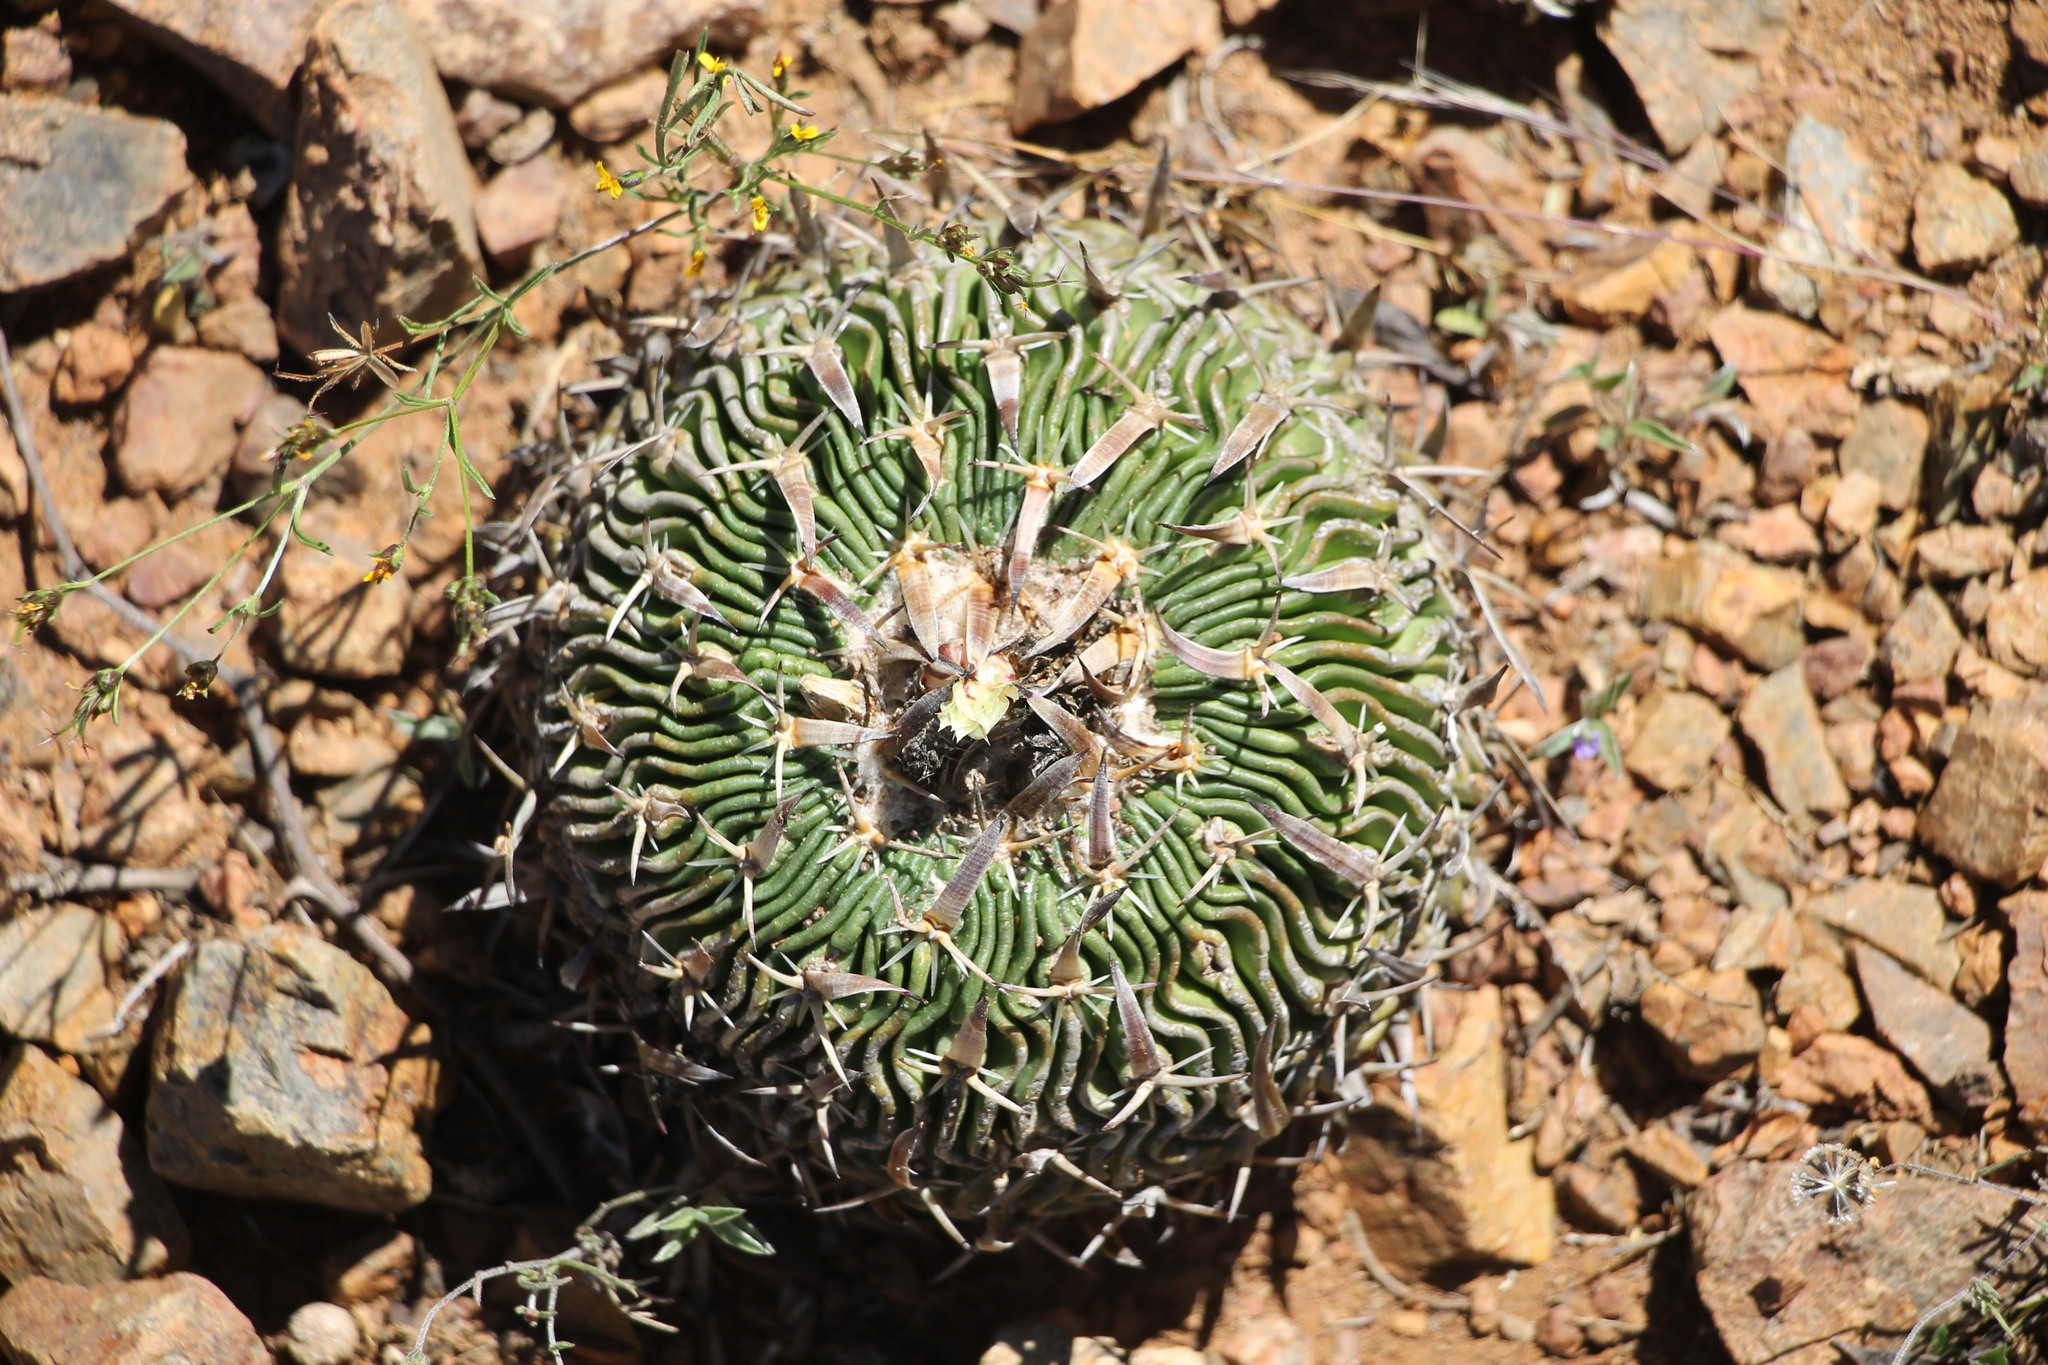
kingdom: Plantae
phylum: Tracheophyta
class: Magnoliopsida
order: Caryophyllales
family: Cactaceae
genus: Stenocactus
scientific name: Stenocactus phyllacanthus
